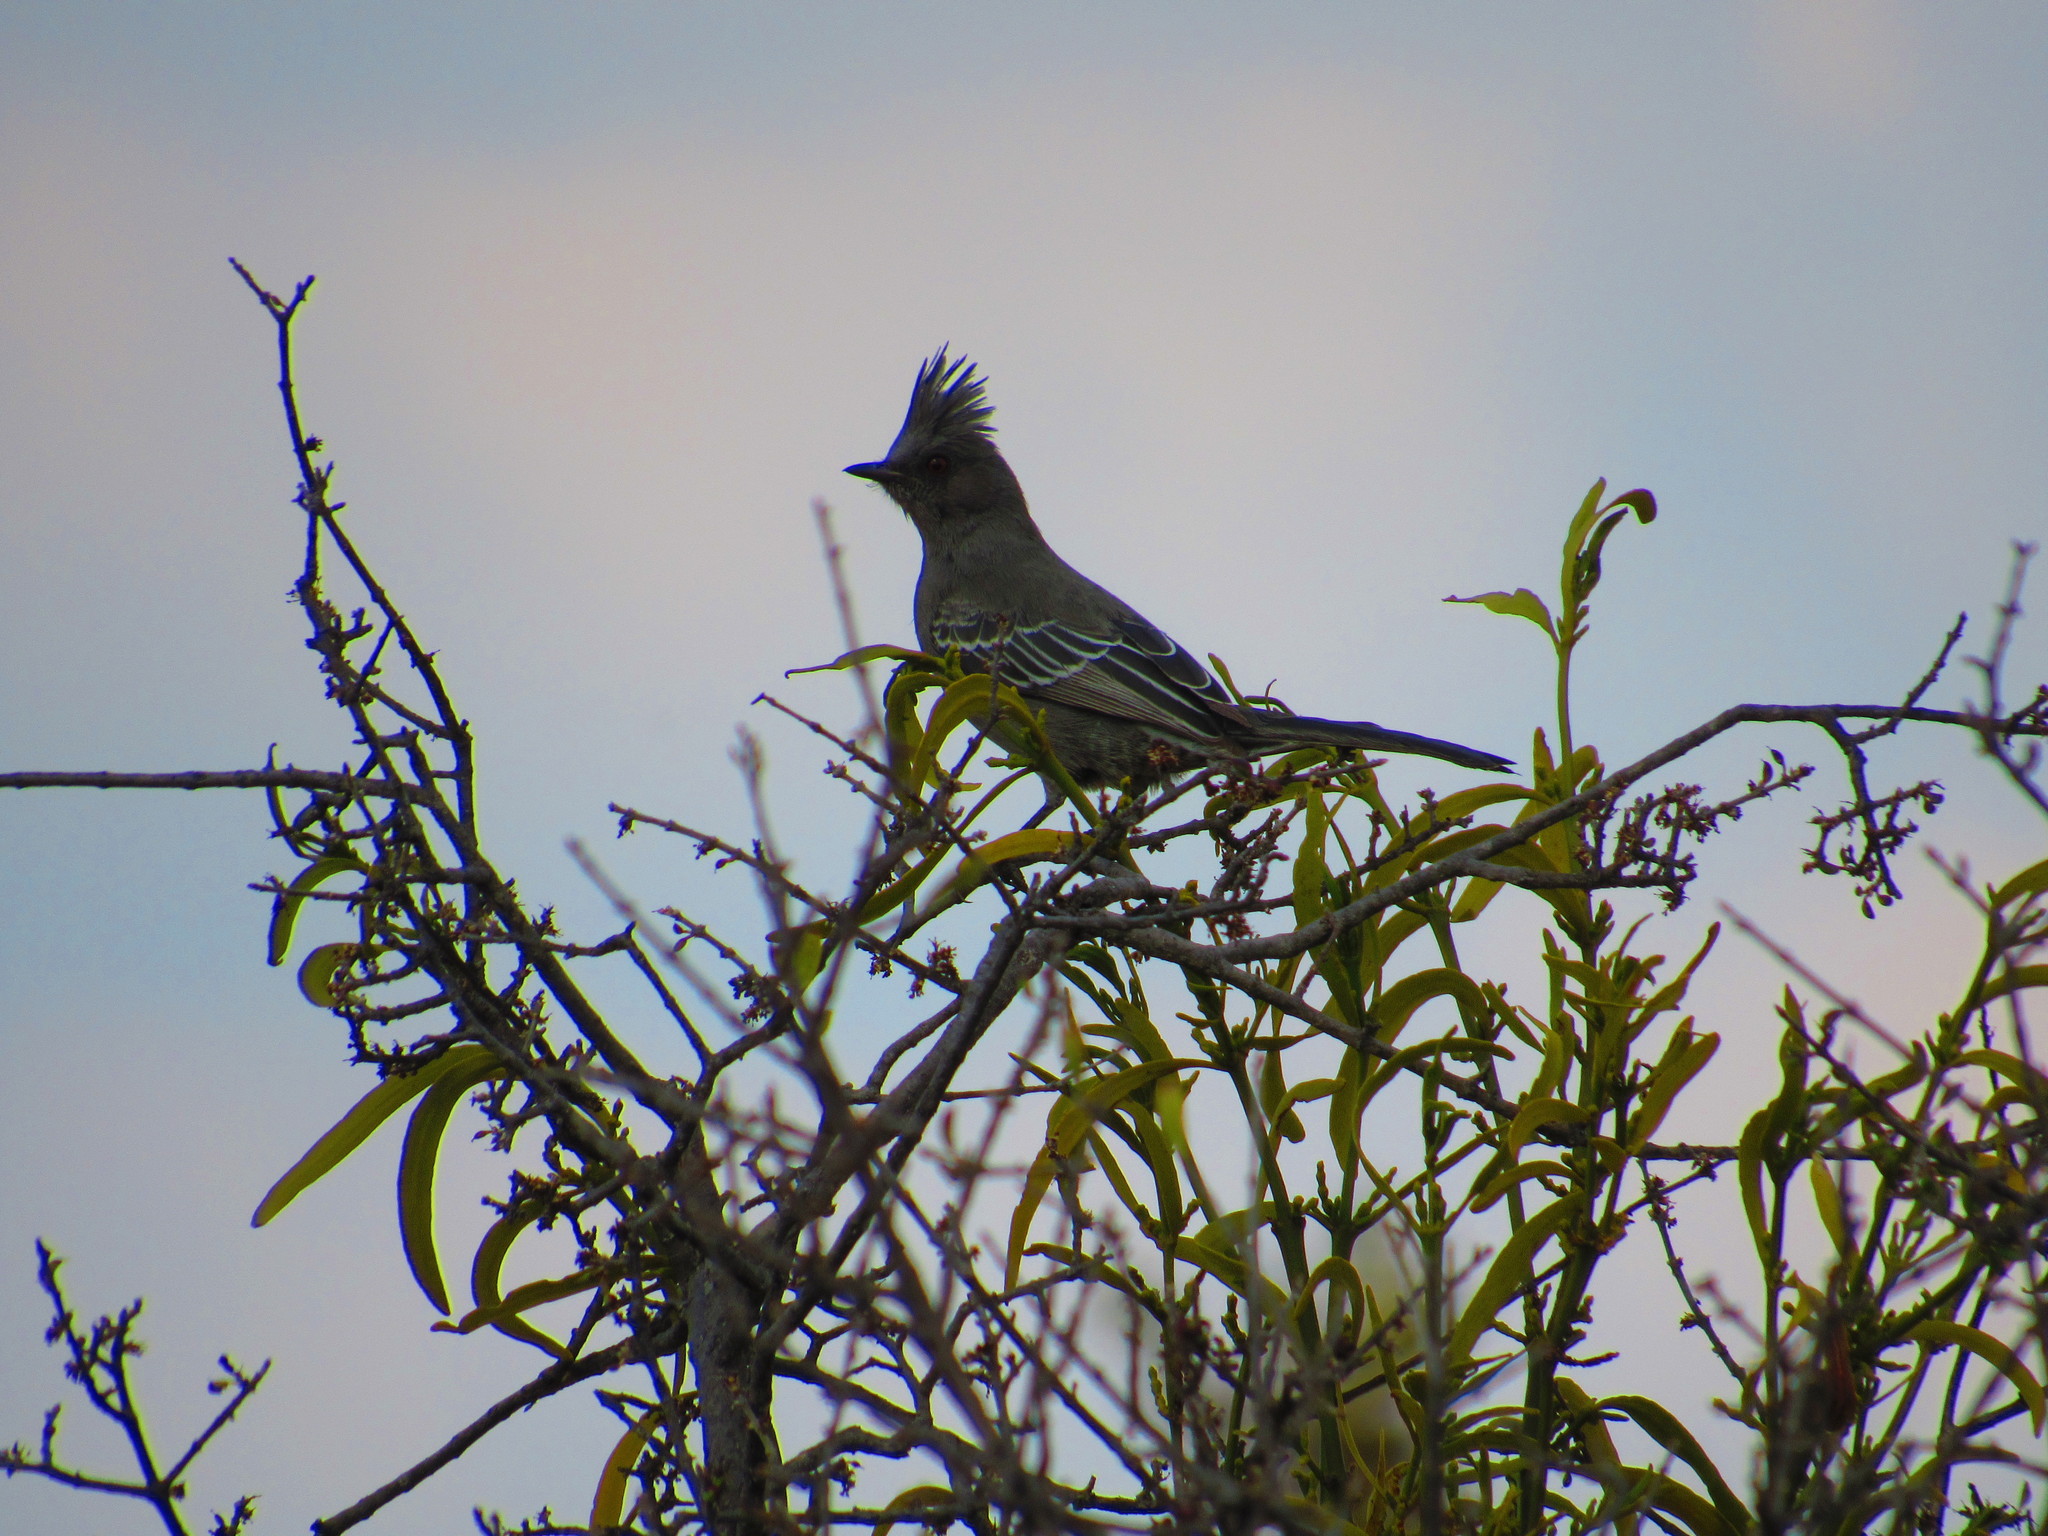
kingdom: Animalia
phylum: Chordata
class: Aves
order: Passeriformes
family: Ptilogonatidae
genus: Phainopepla
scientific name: Phainopepla nitens
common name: Phainopepla
